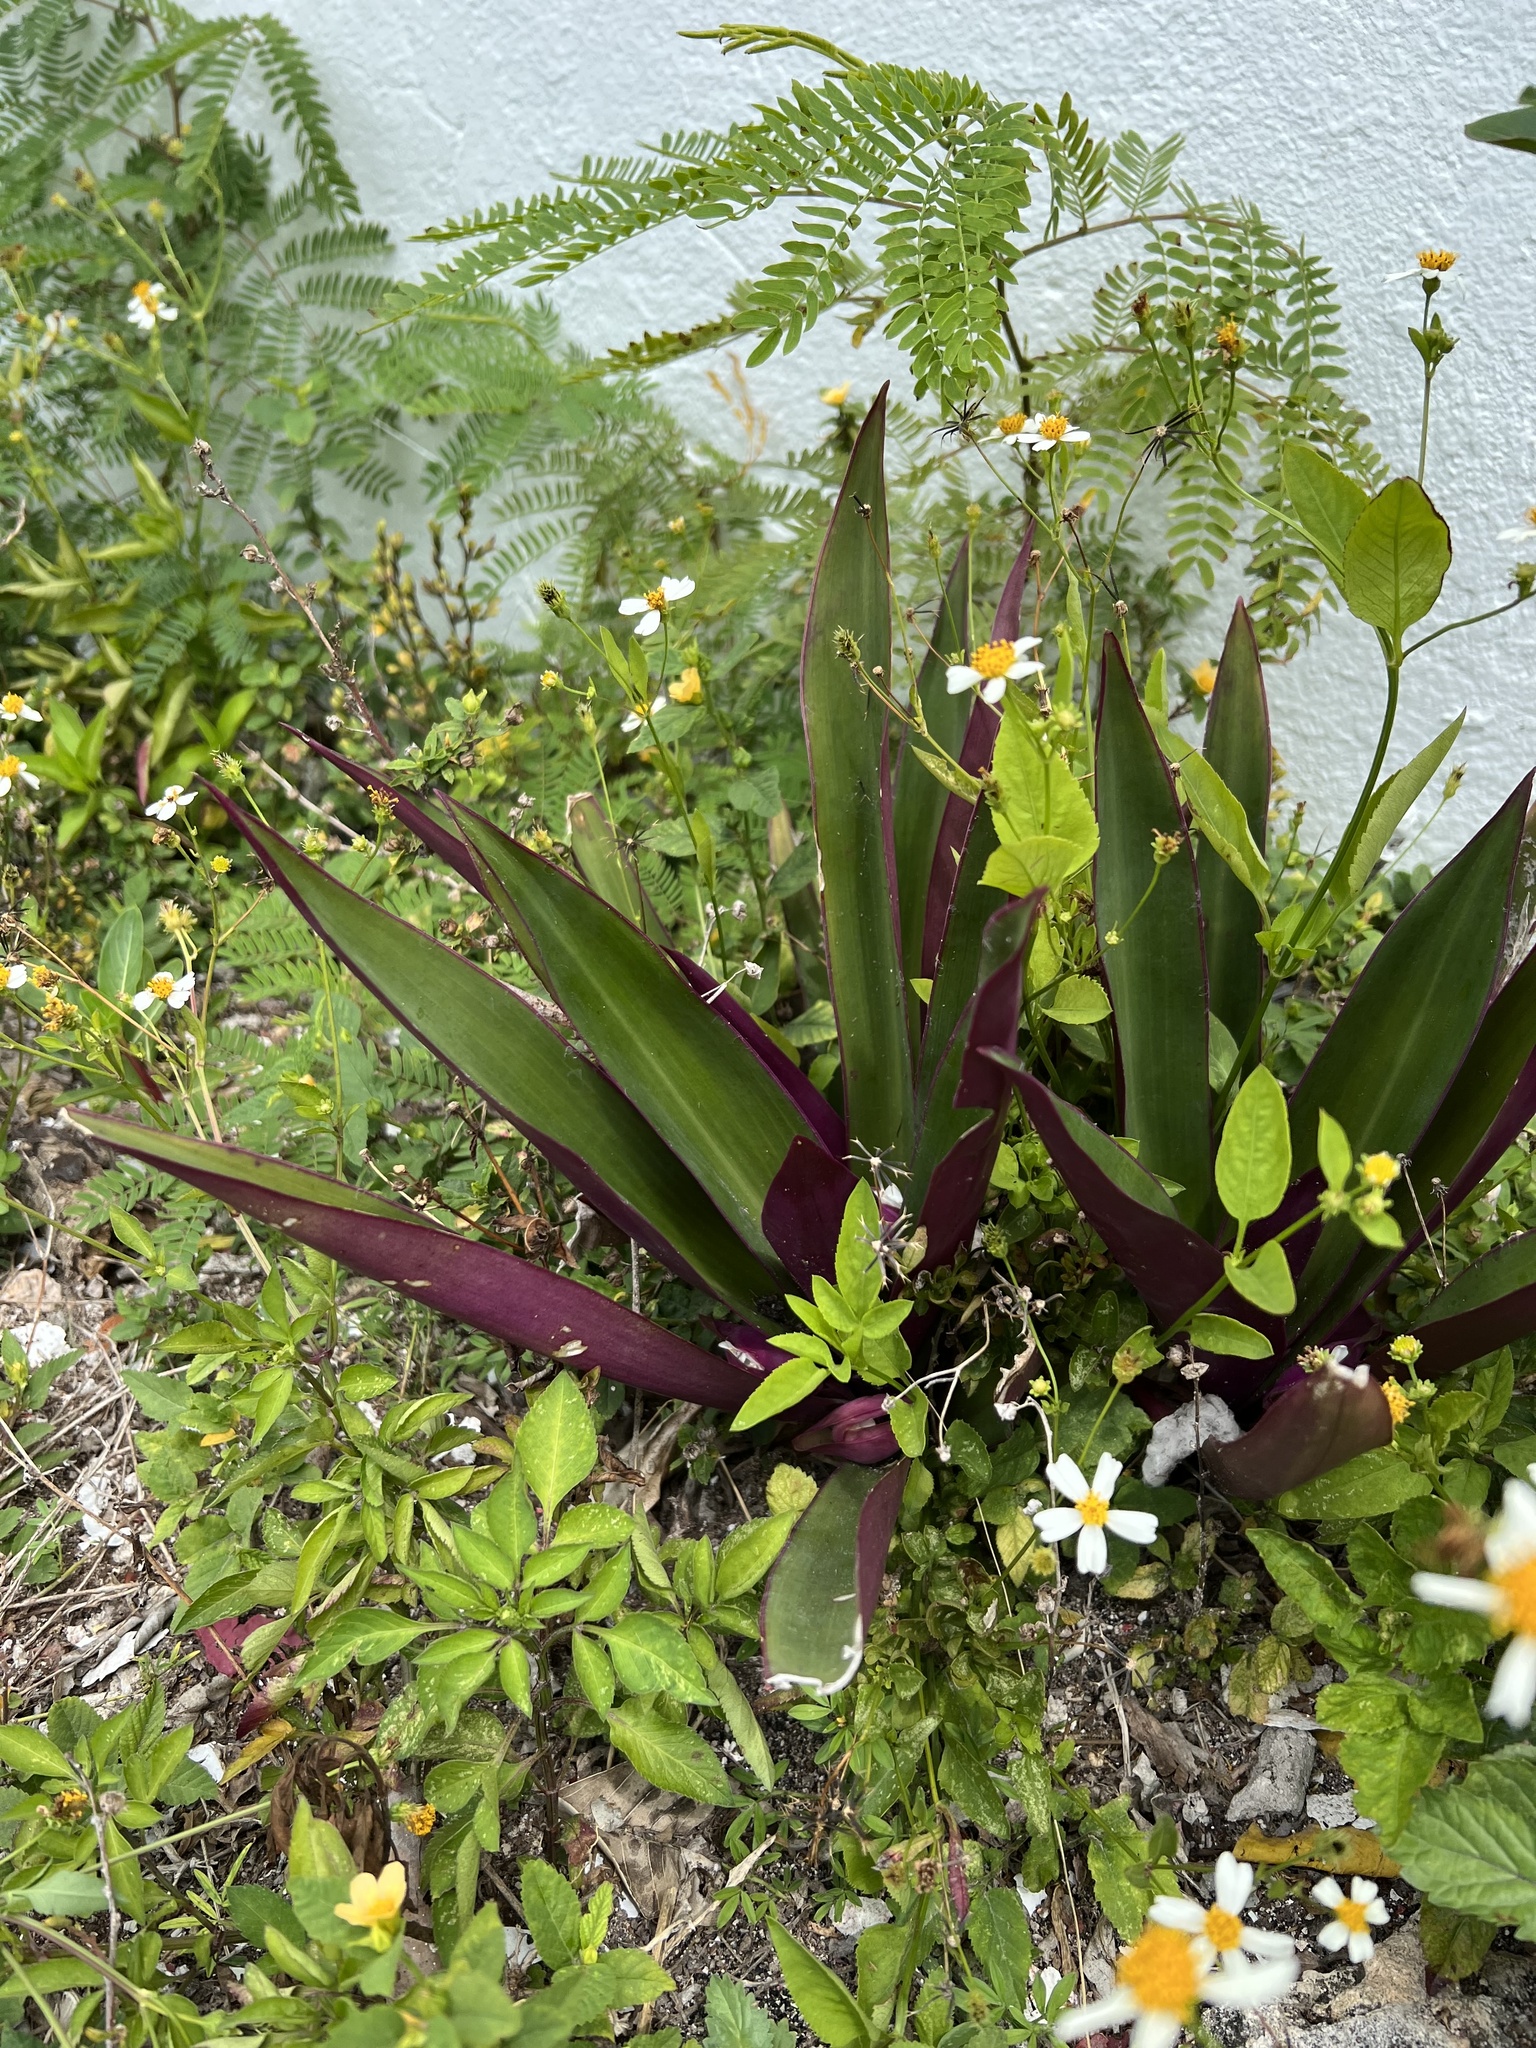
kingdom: Plantae
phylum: Tracheophyta
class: Liliopsida
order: Commelinales
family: Commelinaceae
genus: Tradescantia
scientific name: Tradescantia spathacea
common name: Boatlily
